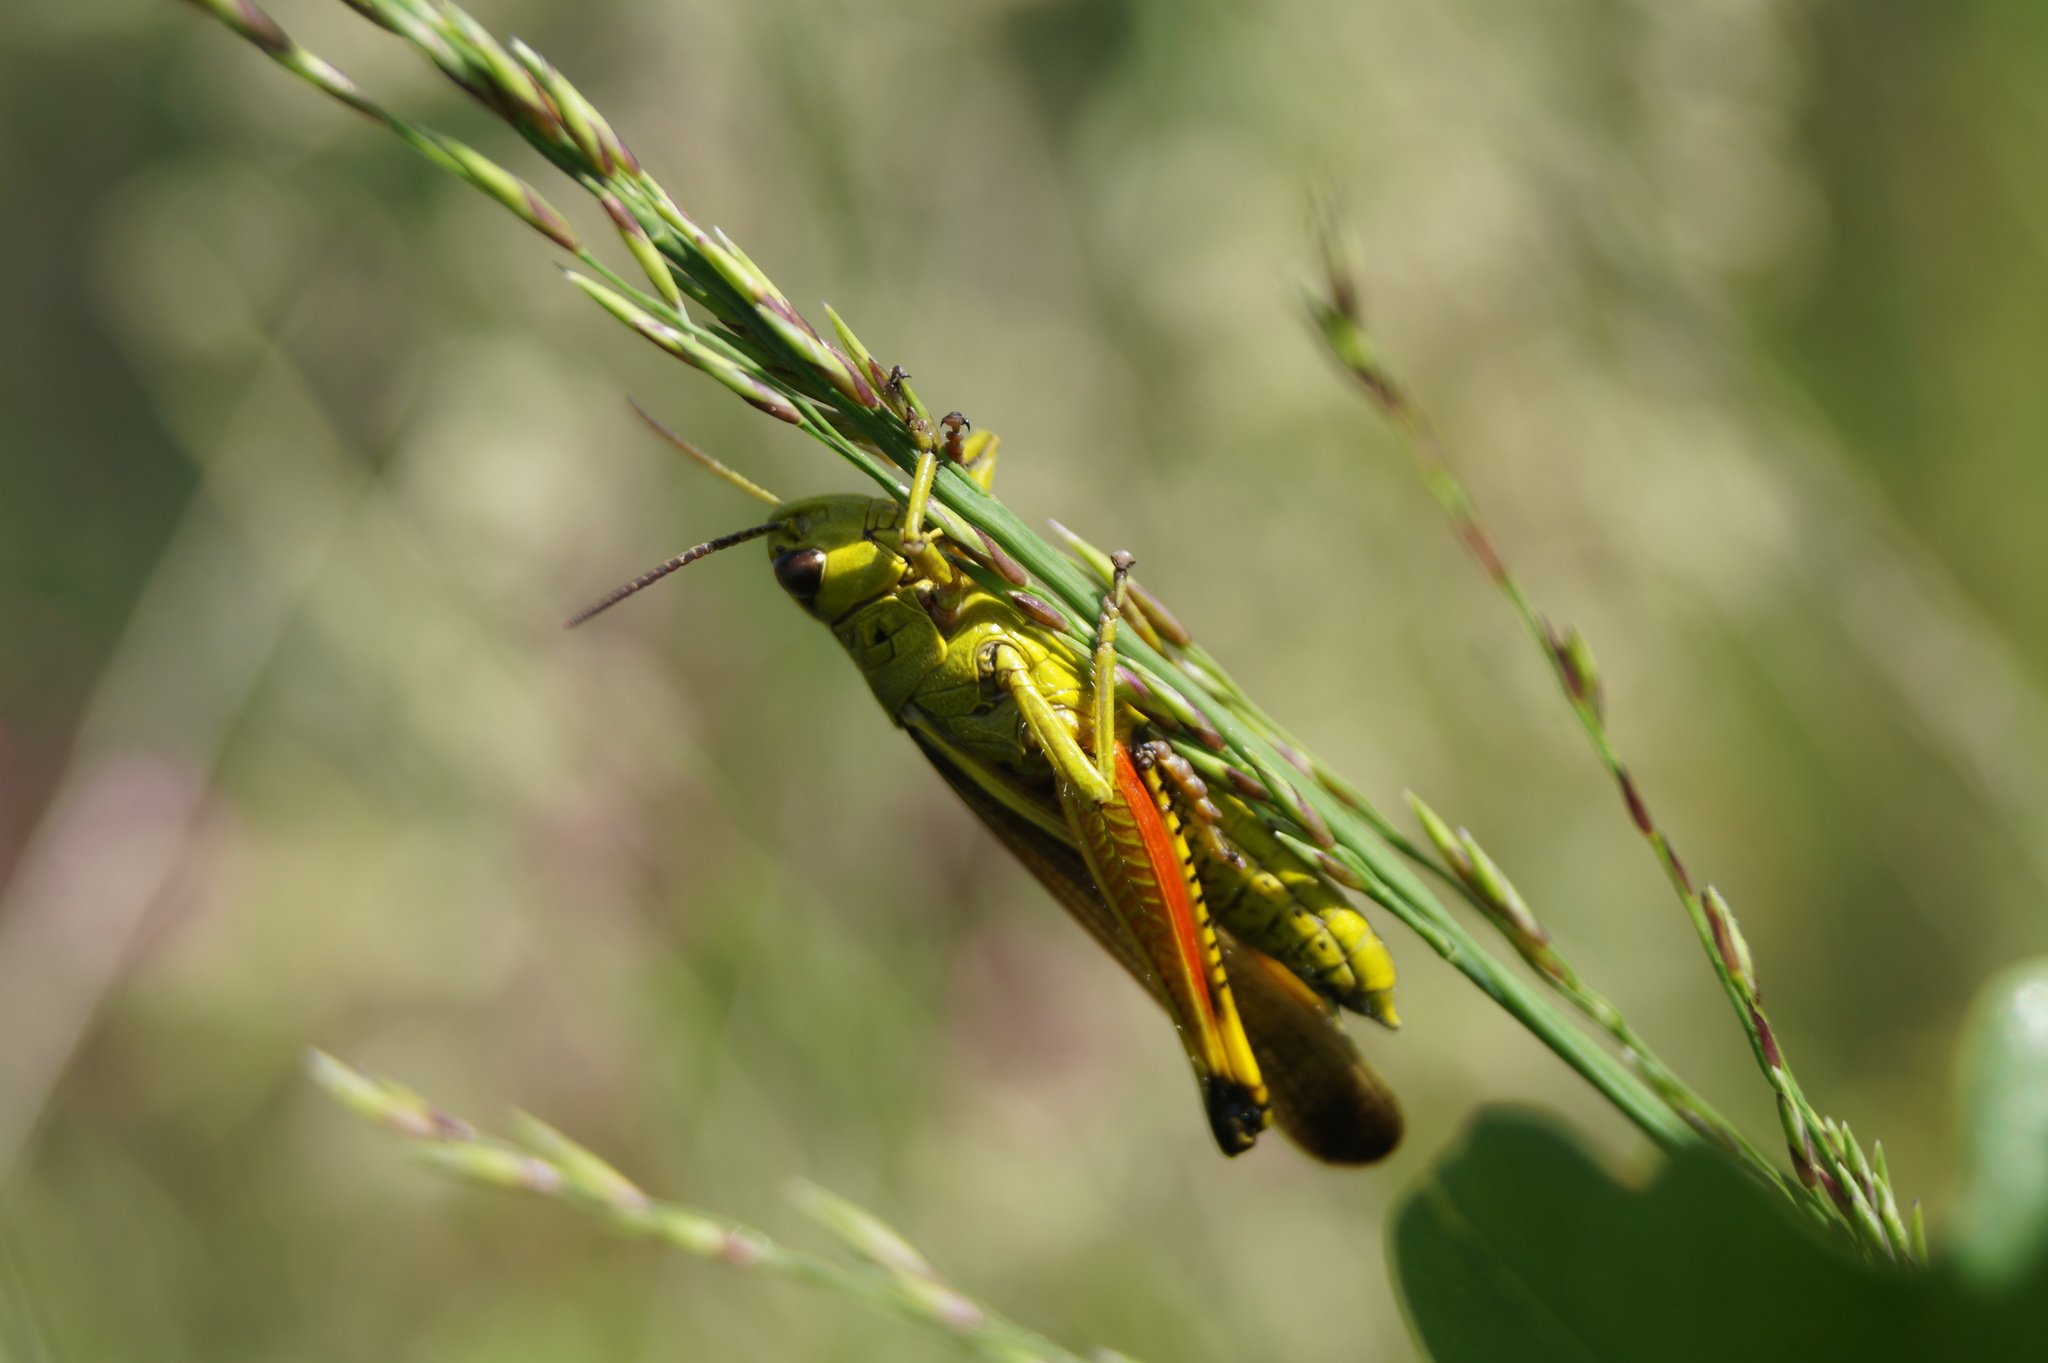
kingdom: Animalia
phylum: Arthropoda
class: Insecta
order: Orthoptera
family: Acrididae
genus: Stethophyma
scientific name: Stethophyma grossum
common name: Large marsh grasshopper
